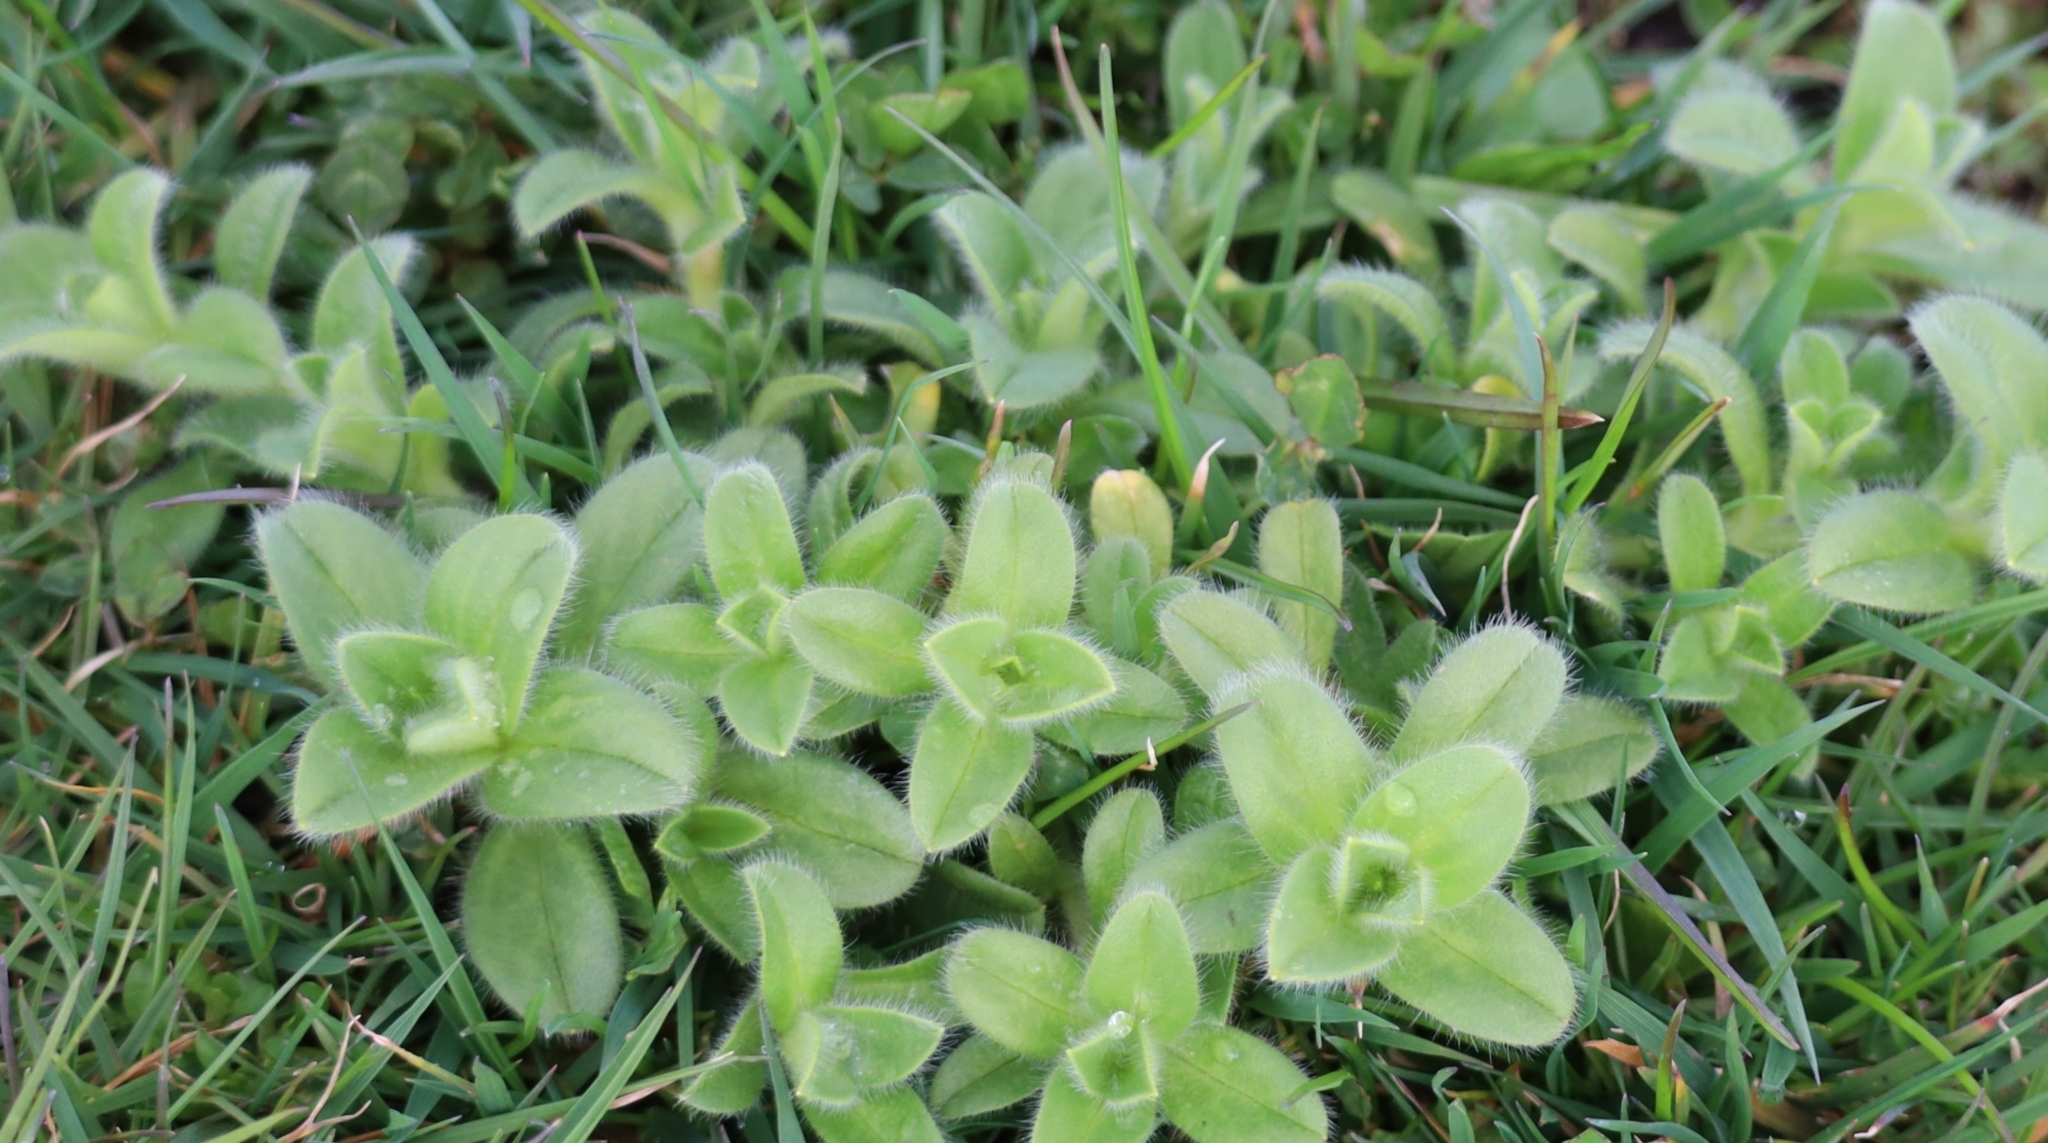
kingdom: Plantae
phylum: Tracheophyta
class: Magnoliopsida
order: Caryophyllales
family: Caryophyllaceae
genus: Cerastium
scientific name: Cerastium glomeratum
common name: Sticky chickweed
